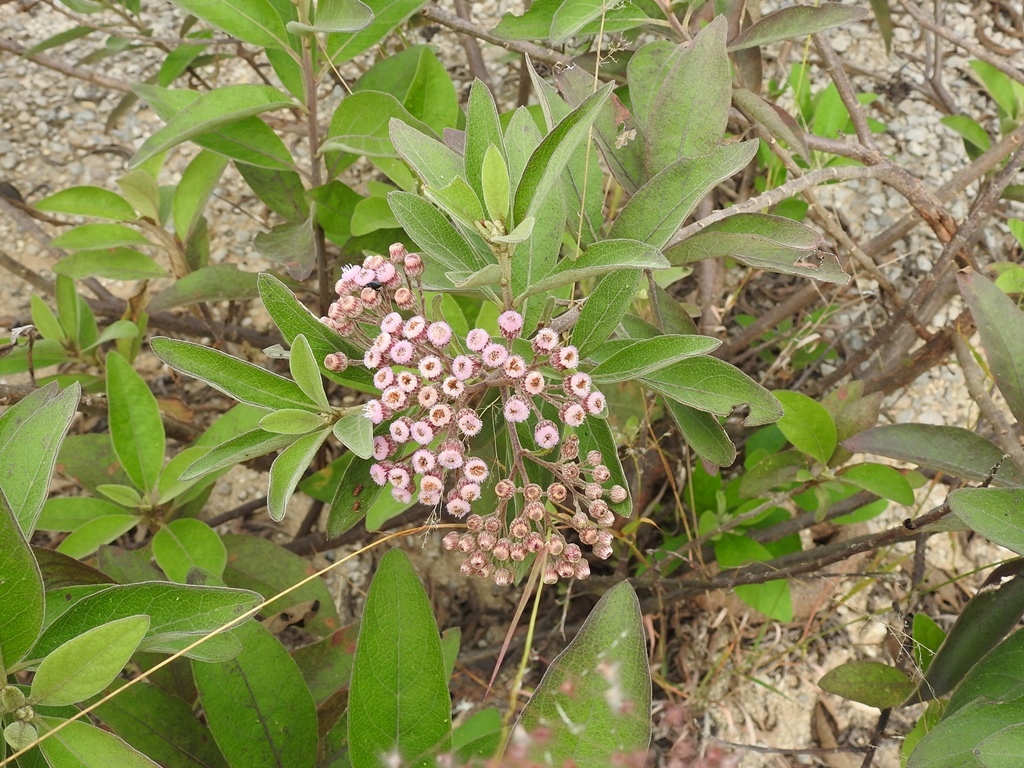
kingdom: Plantae
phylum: Tracheophyta
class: Magnoliopsida
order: Asterales
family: Asteraceae
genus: Pluchea
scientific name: Pluchea carolinensis
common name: Marsh fleabane
